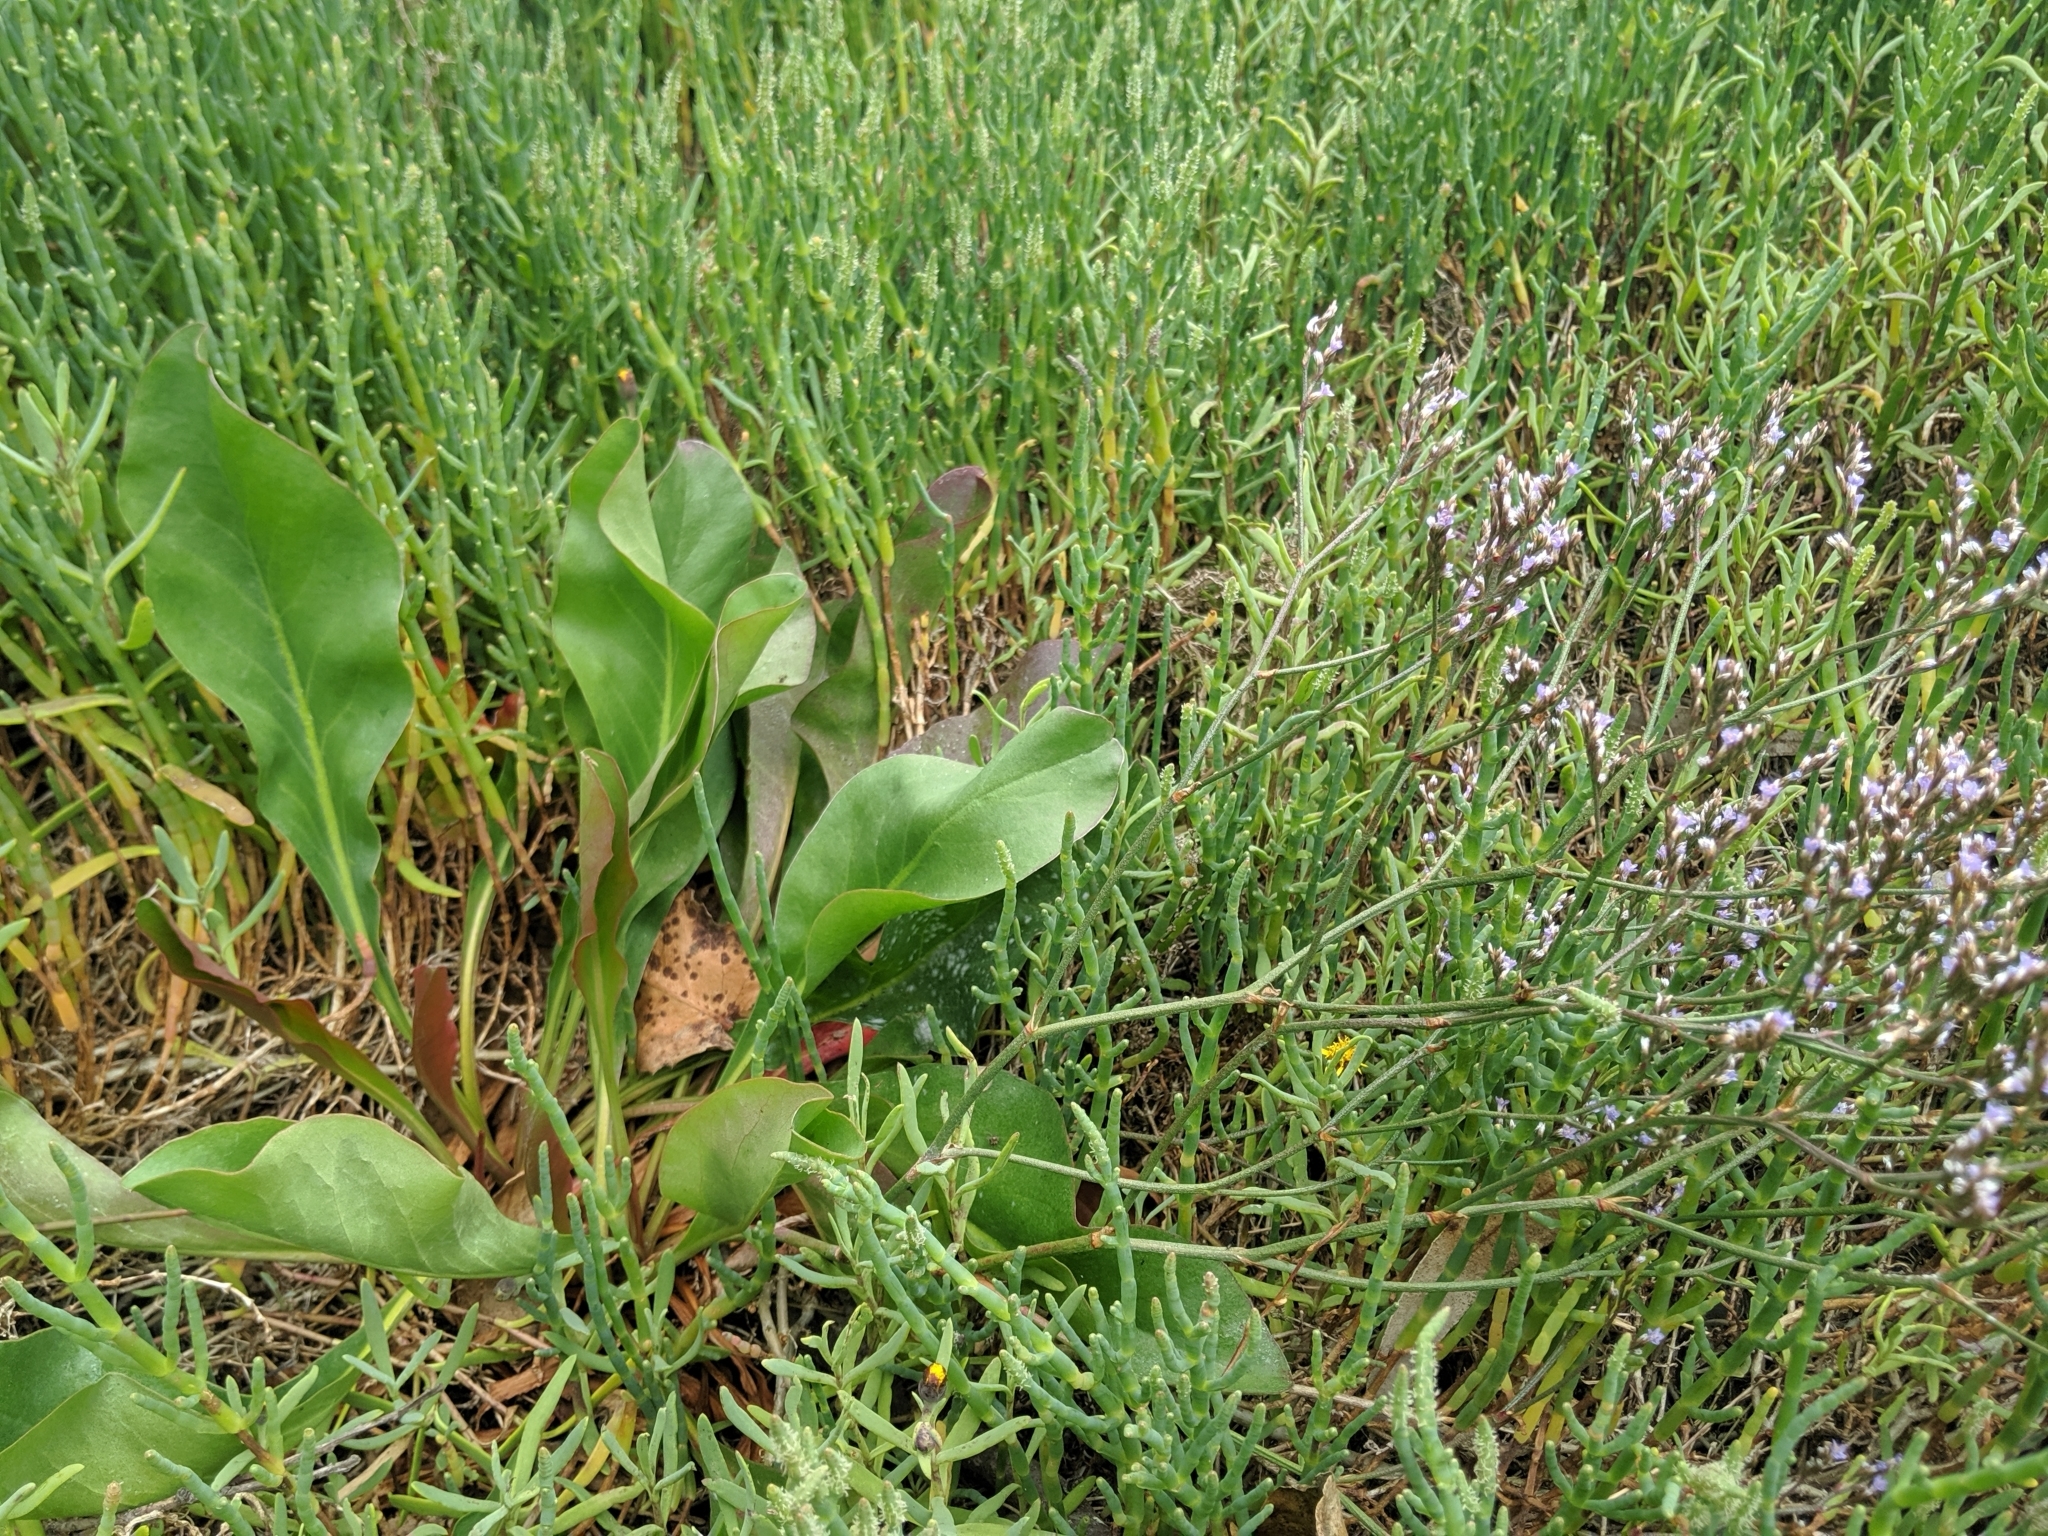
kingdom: Plantae
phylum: Tracheophyta
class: Magnoliopsida
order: Caryophyllales
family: Plumbaginaceae
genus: Limonium
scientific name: Limonium californicum
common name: Marsh-rosemary
